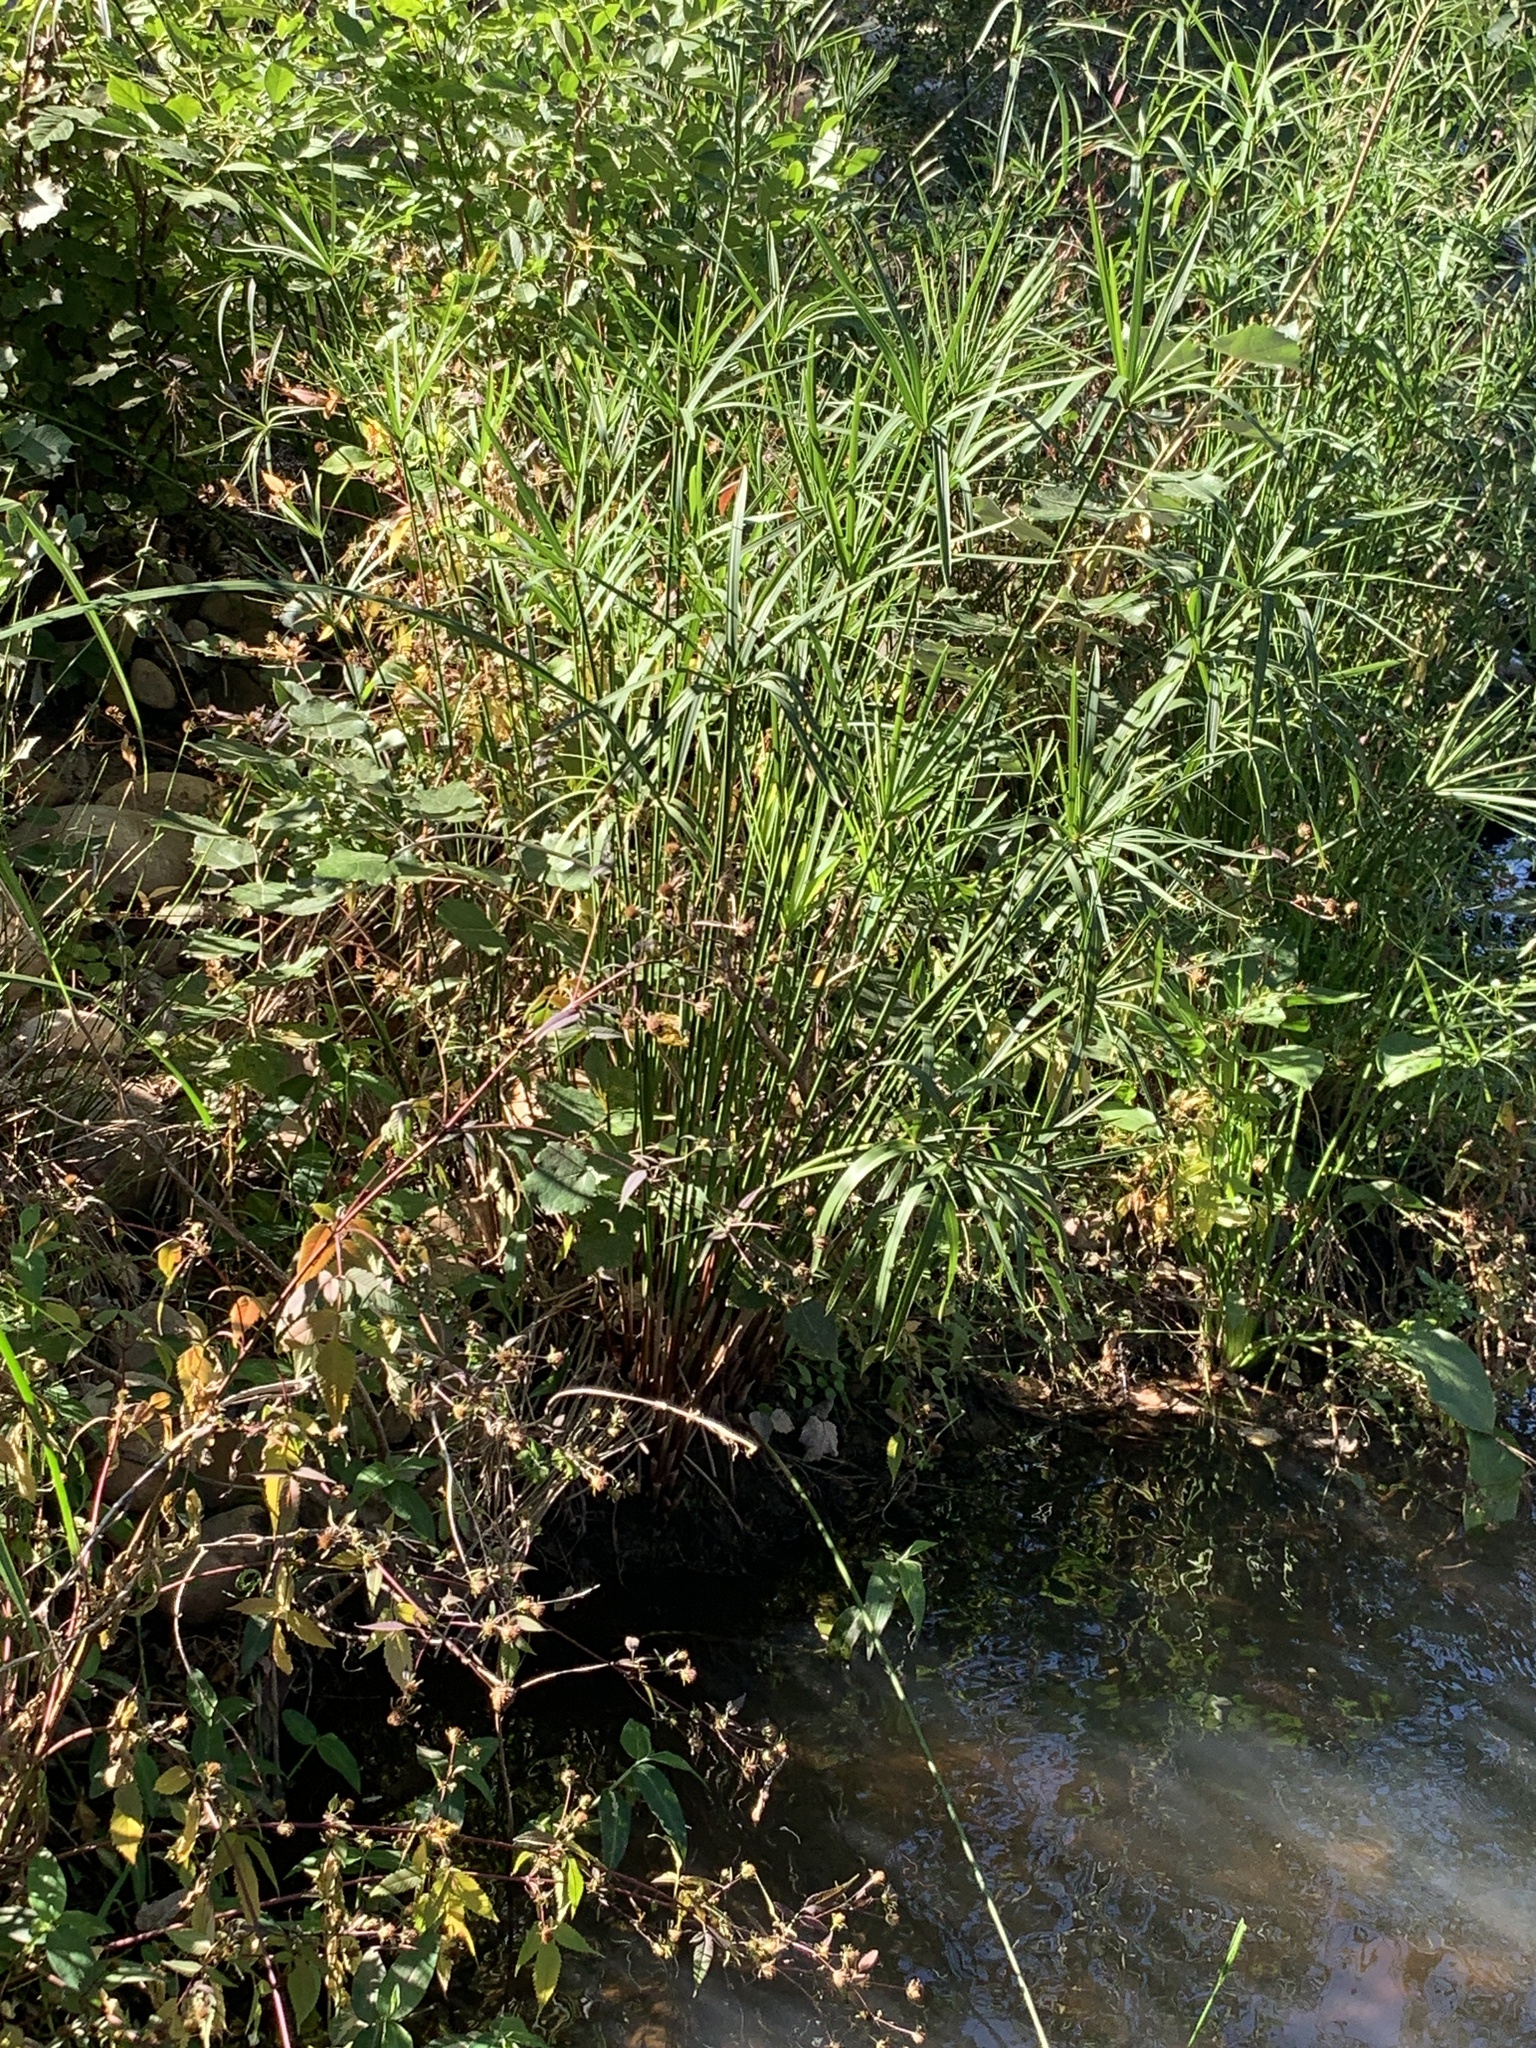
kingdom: Plantae
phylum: Tracheophyta
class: Liliopsida
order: Poales
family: Cyperaceae
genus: Cyperus
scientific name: Cyperus textilis
